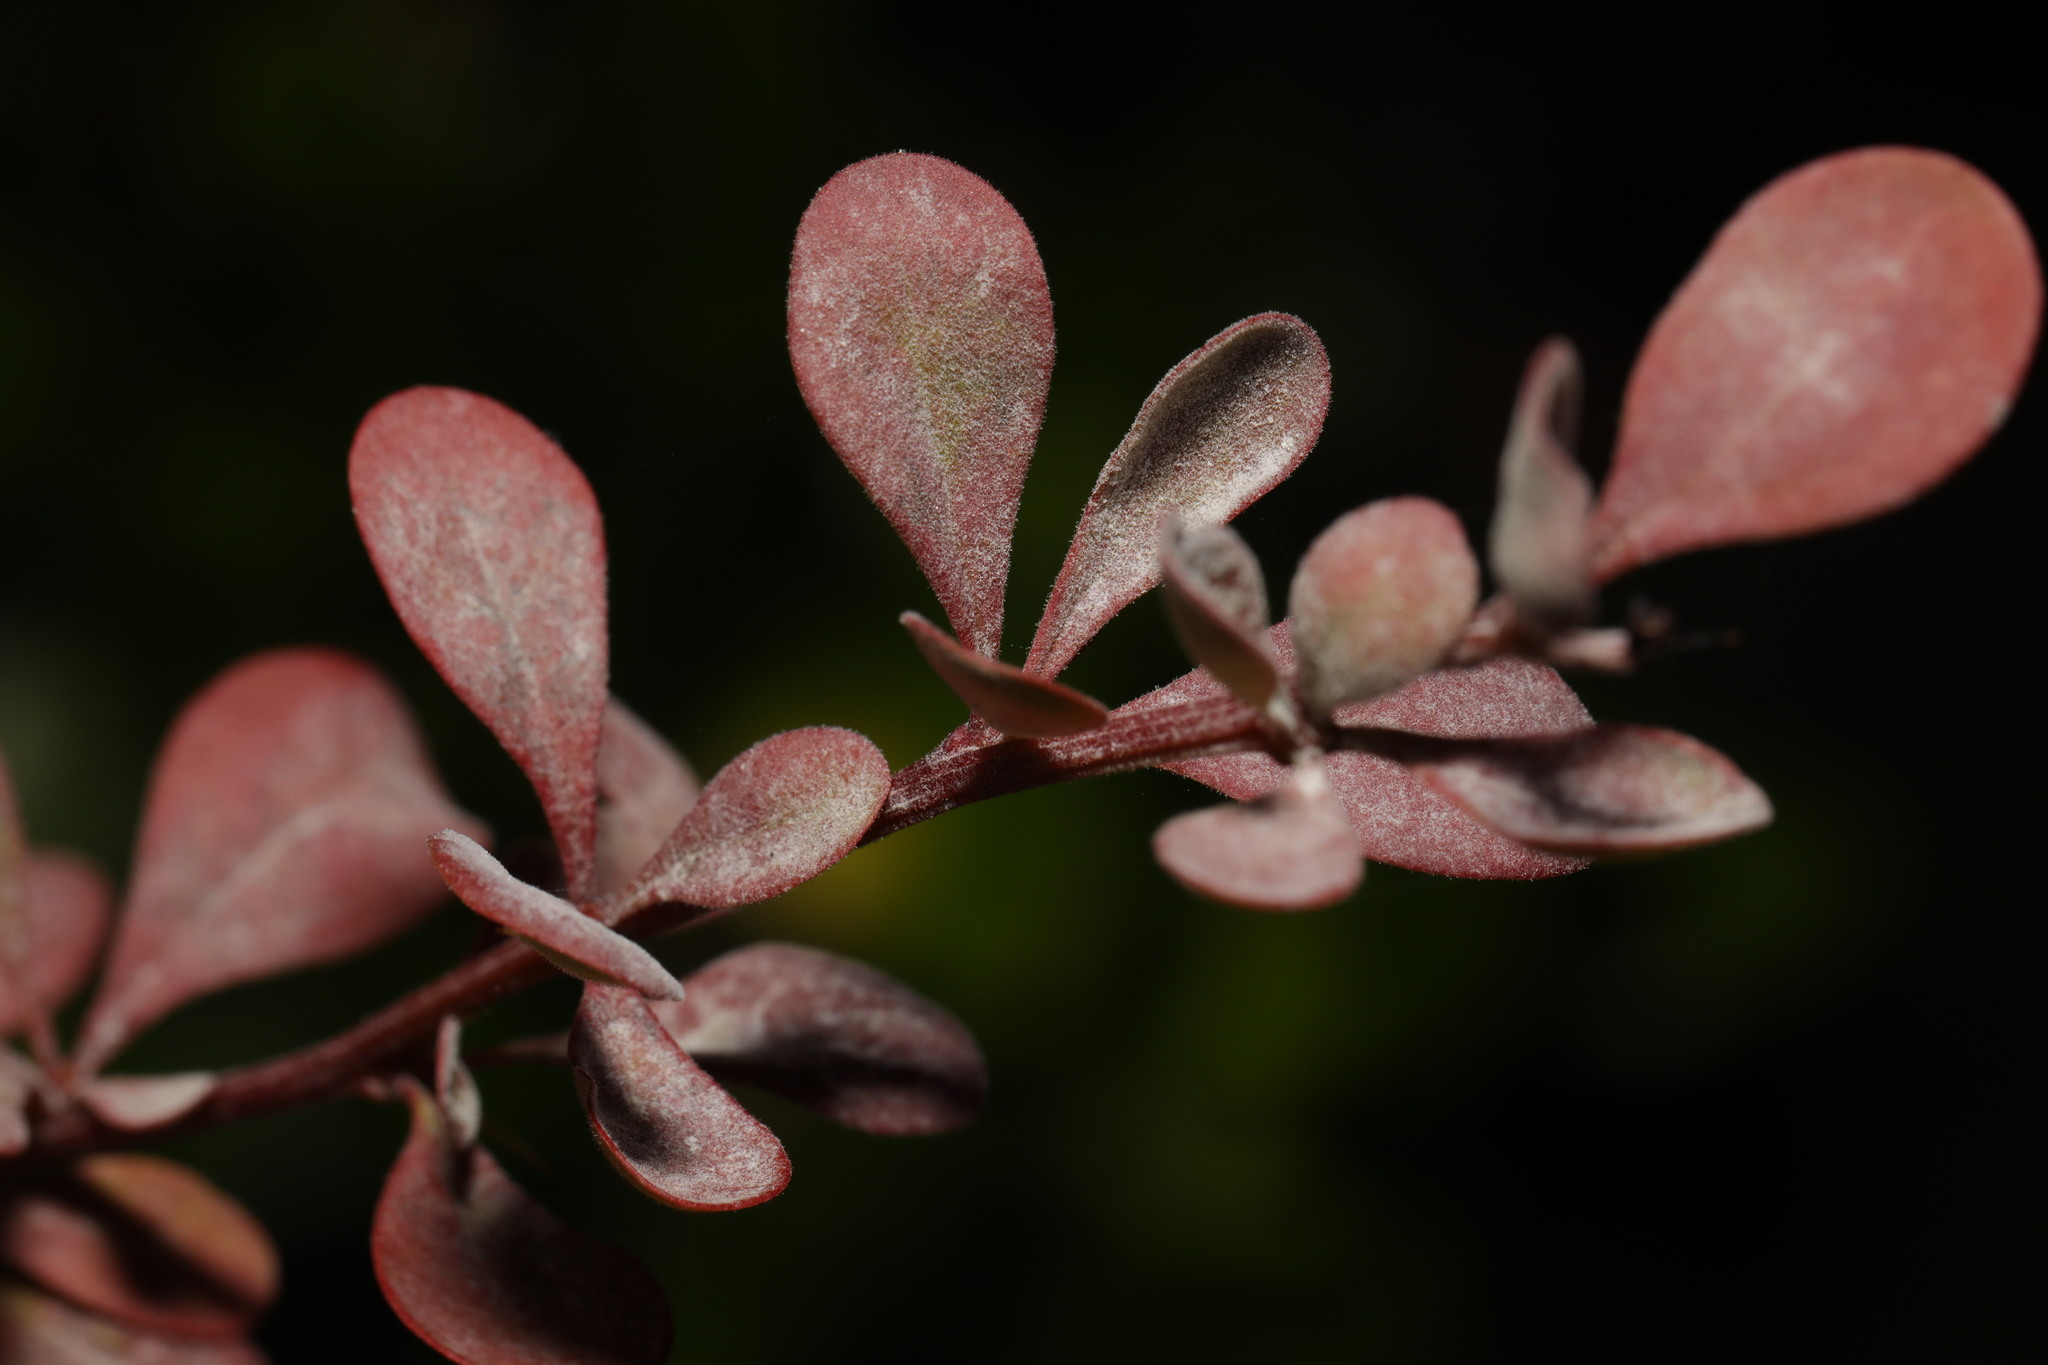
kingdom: Fungi
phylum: Ascomycota
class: Leotiomycetes
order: Helotiales
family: Erysiphaceae
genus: Erysiphe
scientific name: Erysiphe berberidis
